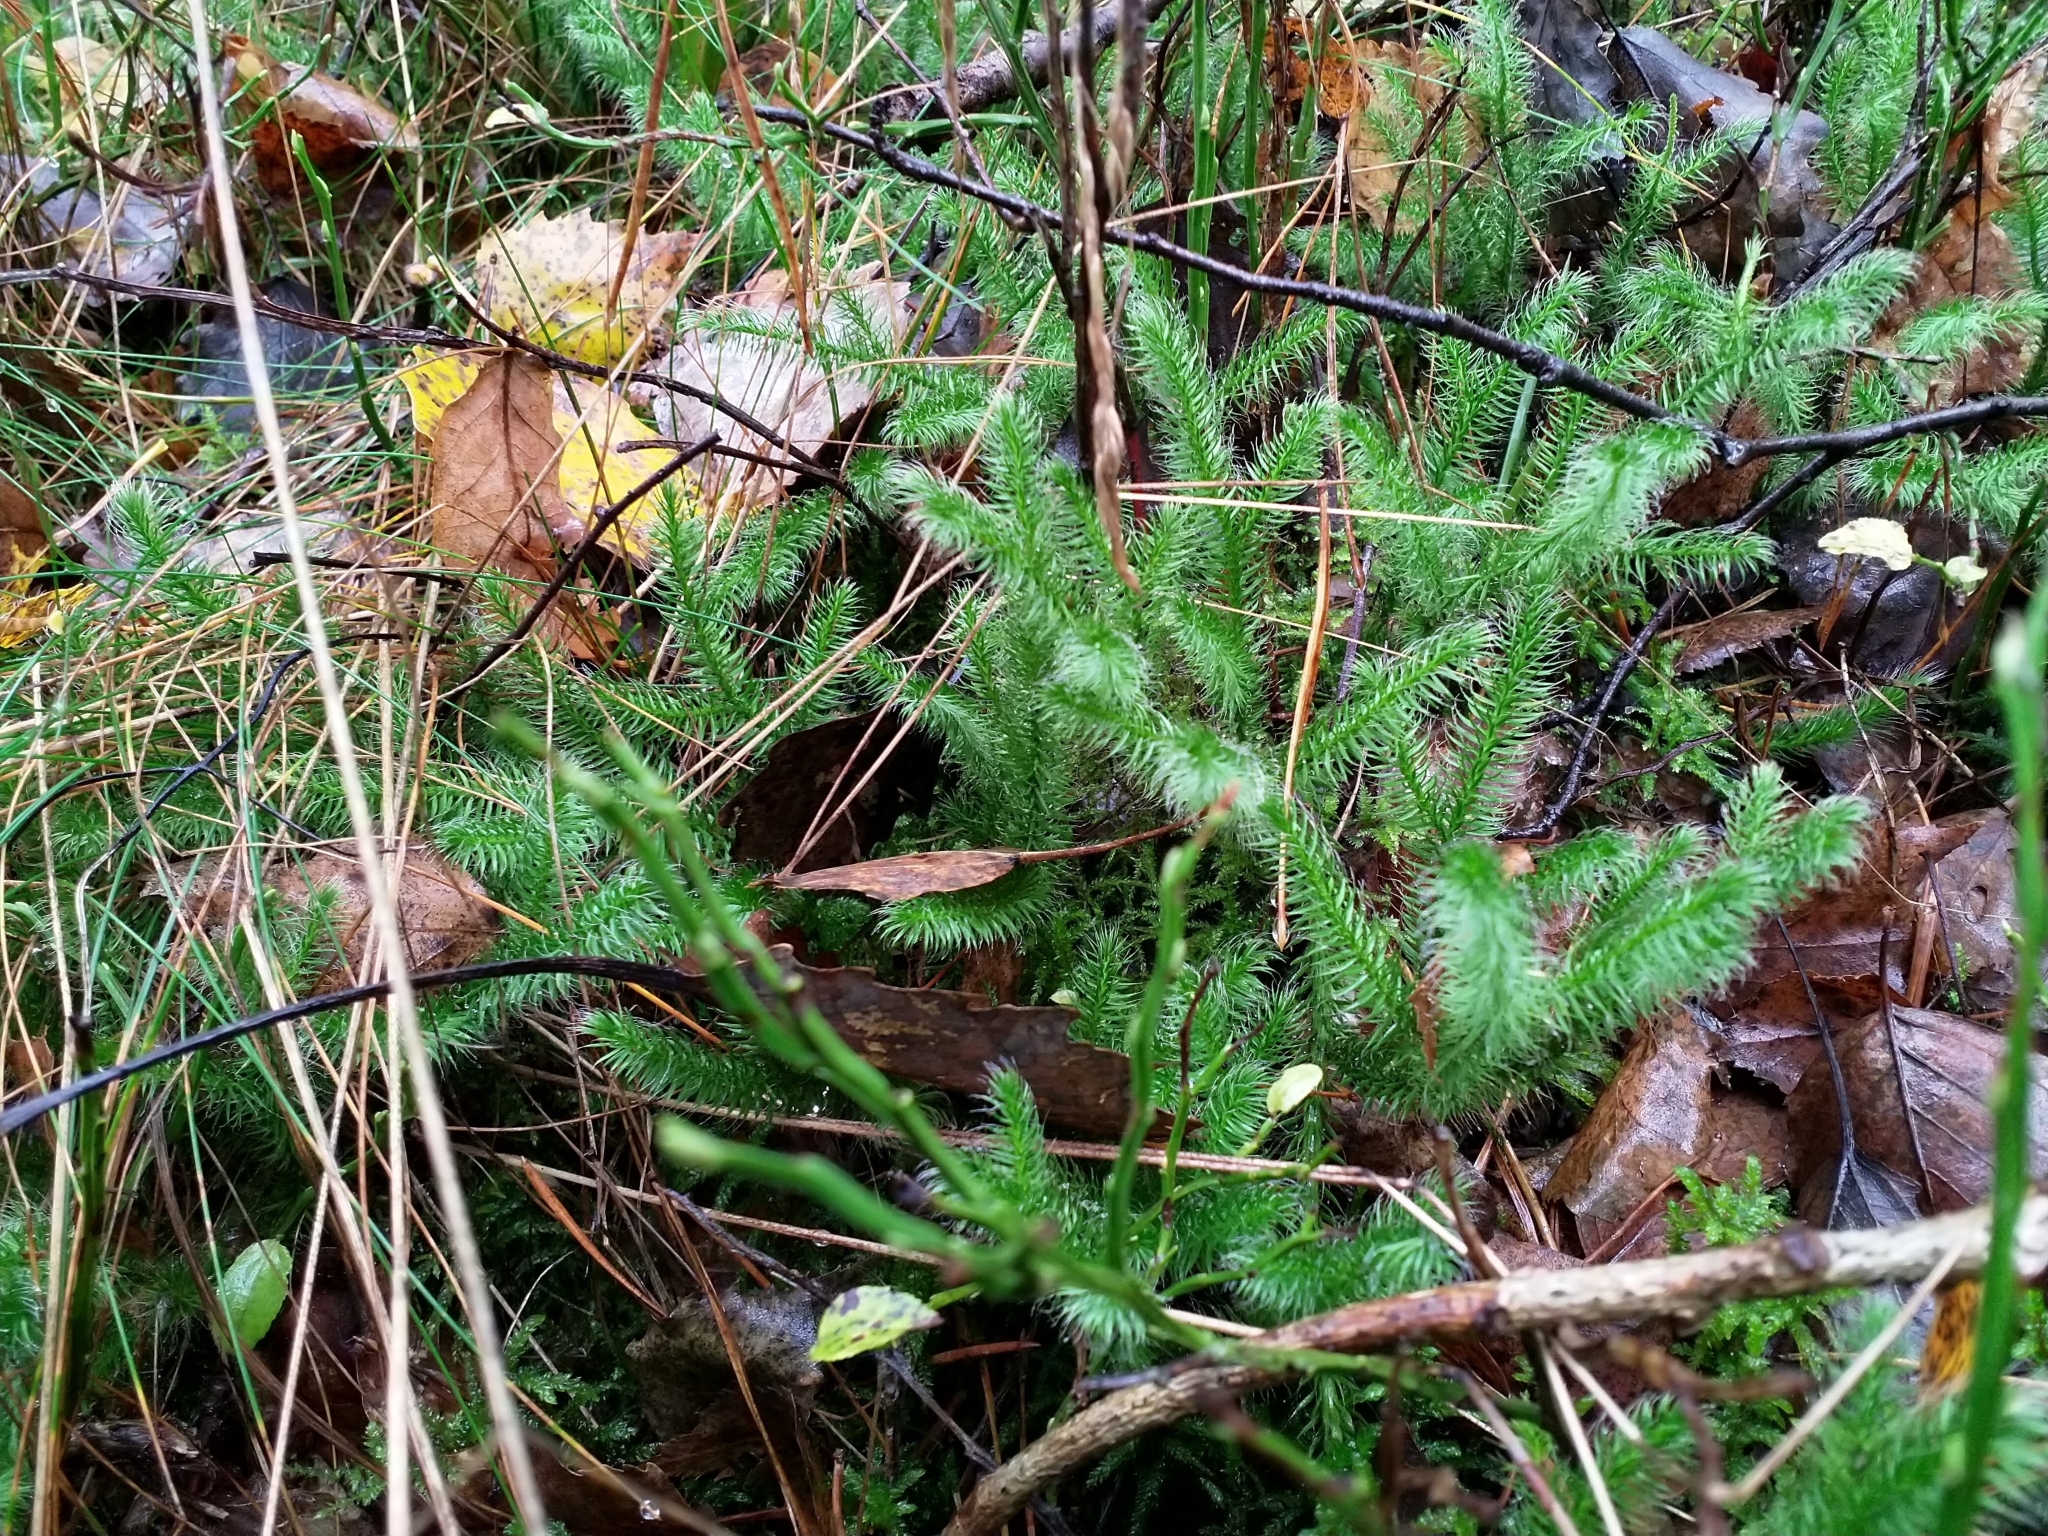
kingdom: Plantae
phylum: Tracheophyta
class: Lycopodiopsida
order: Lycopodiales
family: Lycopodiaceae
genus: Lycopodium
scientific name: Lycopodium clavatum
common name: Stag's-horn clubmoss
